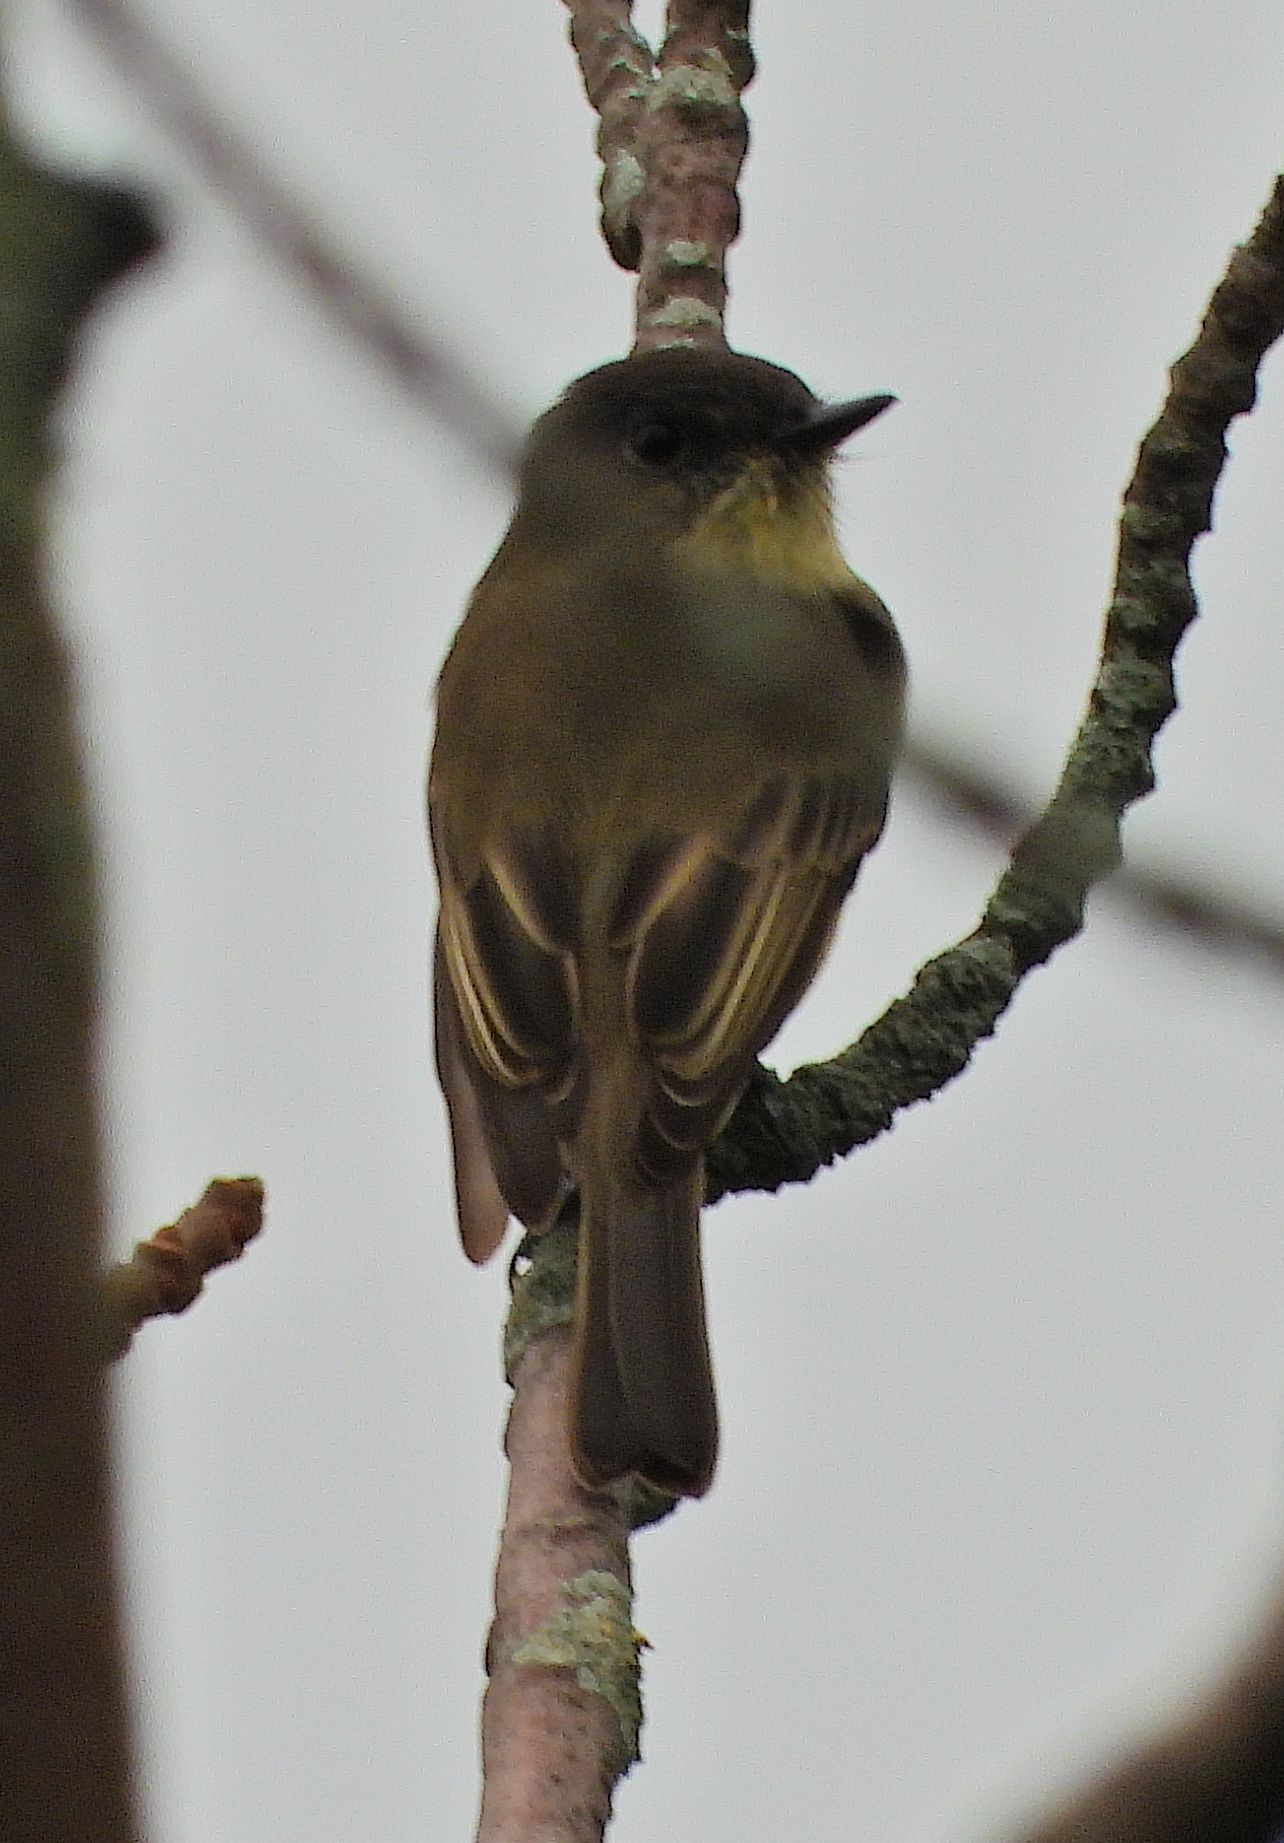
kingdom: Animalia
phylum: Chordata
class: Aves
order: Passeriformes
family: Tyrannidae
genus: Sayornis
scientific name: Sayornis phoebe
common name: Eastern phoebe
